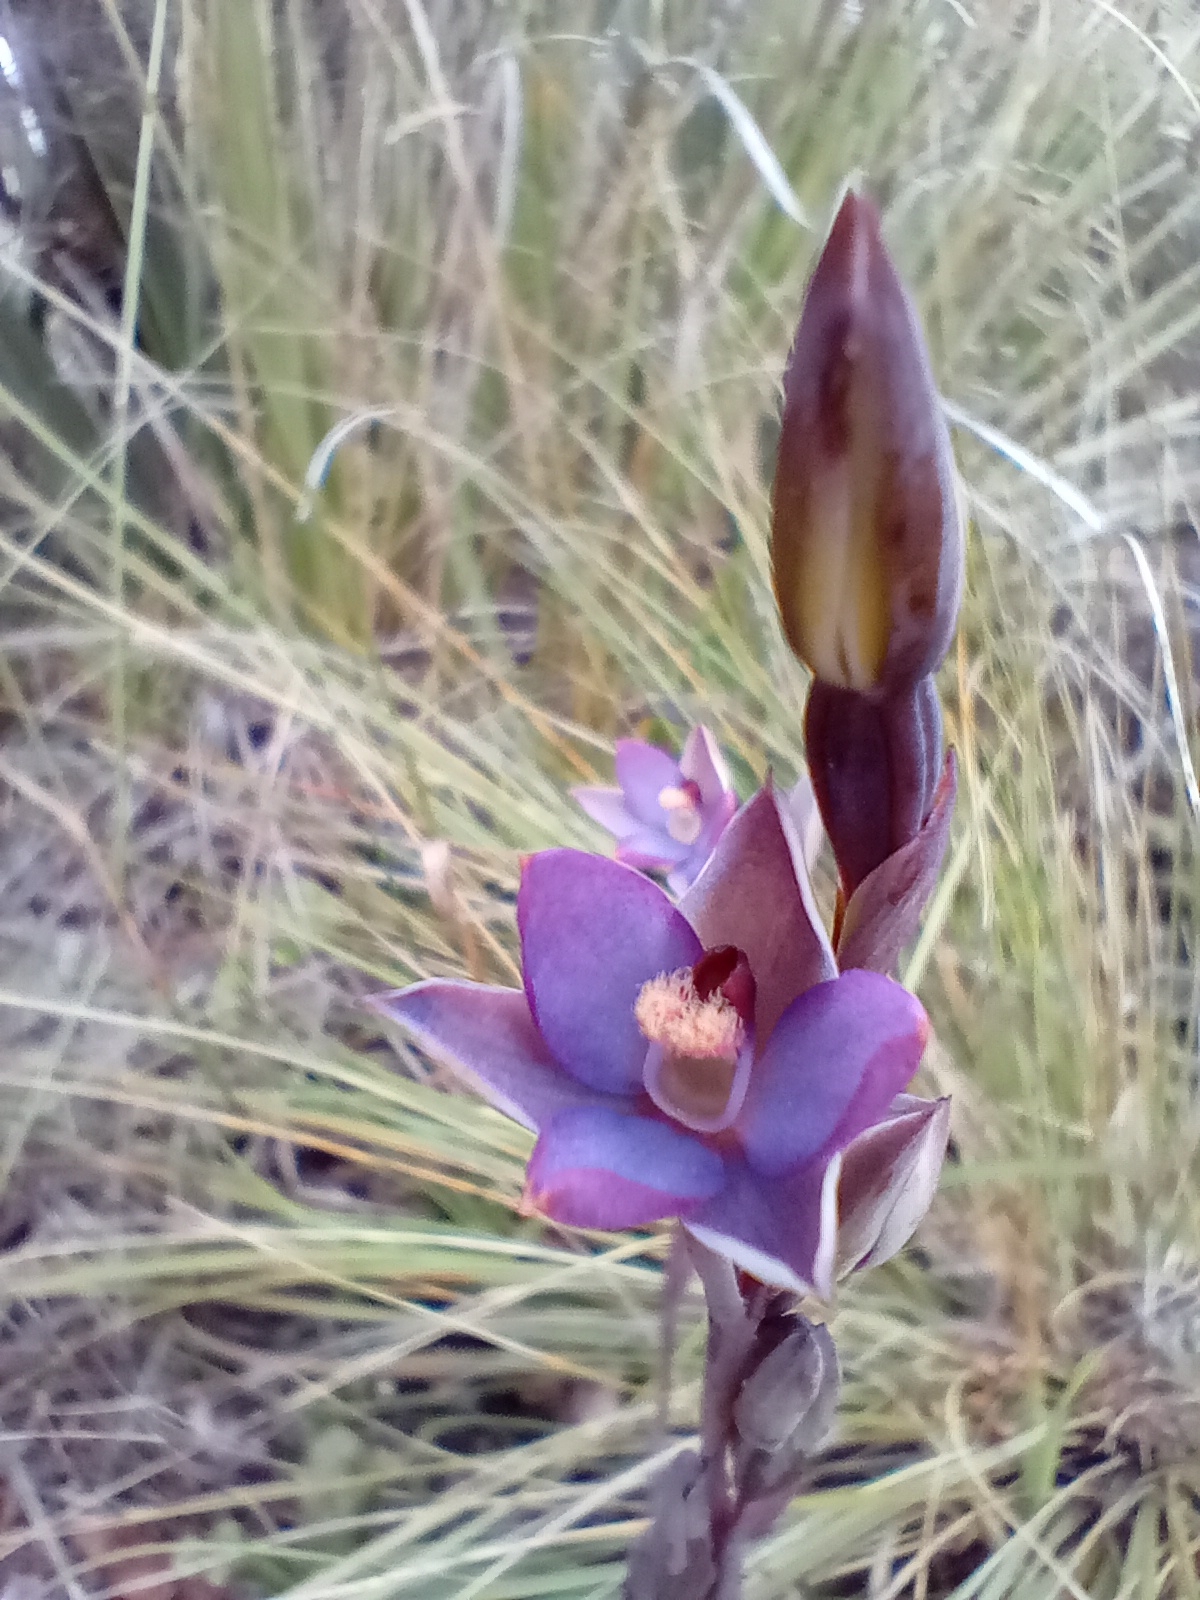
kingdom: Plantae
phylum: Tracheophyta
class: Liliopsida
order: Asparagales
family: Orchidaceae
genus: Thelymitra
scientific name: Thelymitra hatchii
